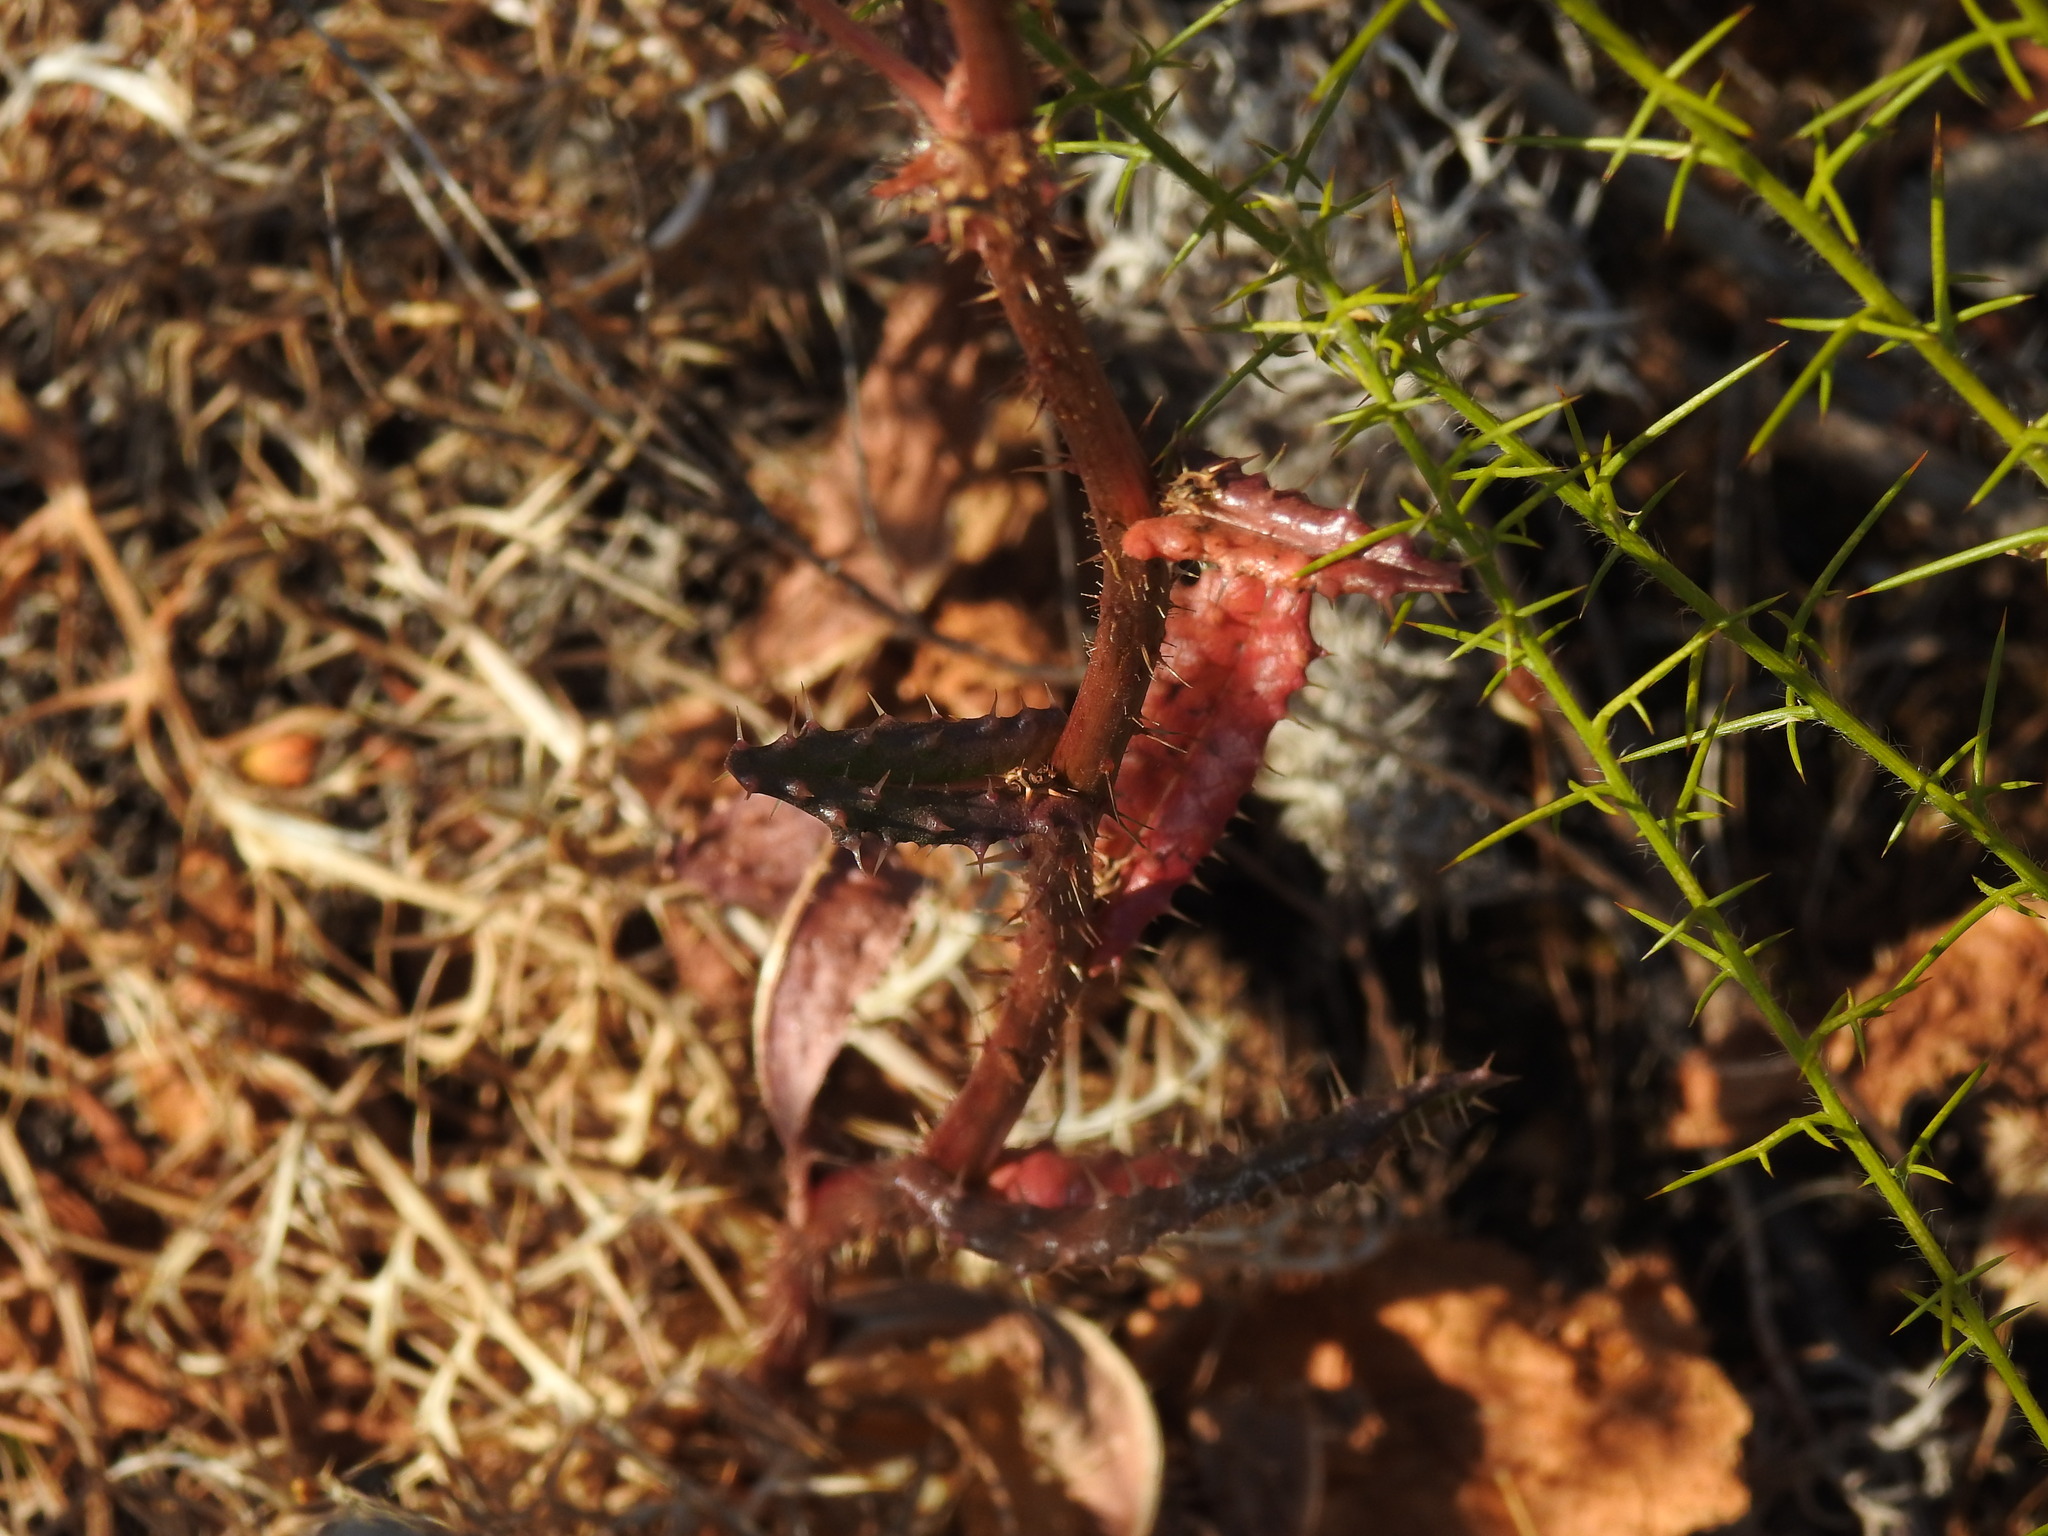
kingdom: Plantae
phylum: Tracheophyta
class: Magnoliopsida
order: Asterales
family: Asteraceae
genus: Helminthotheca
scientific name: Helminthotheca spinosa
